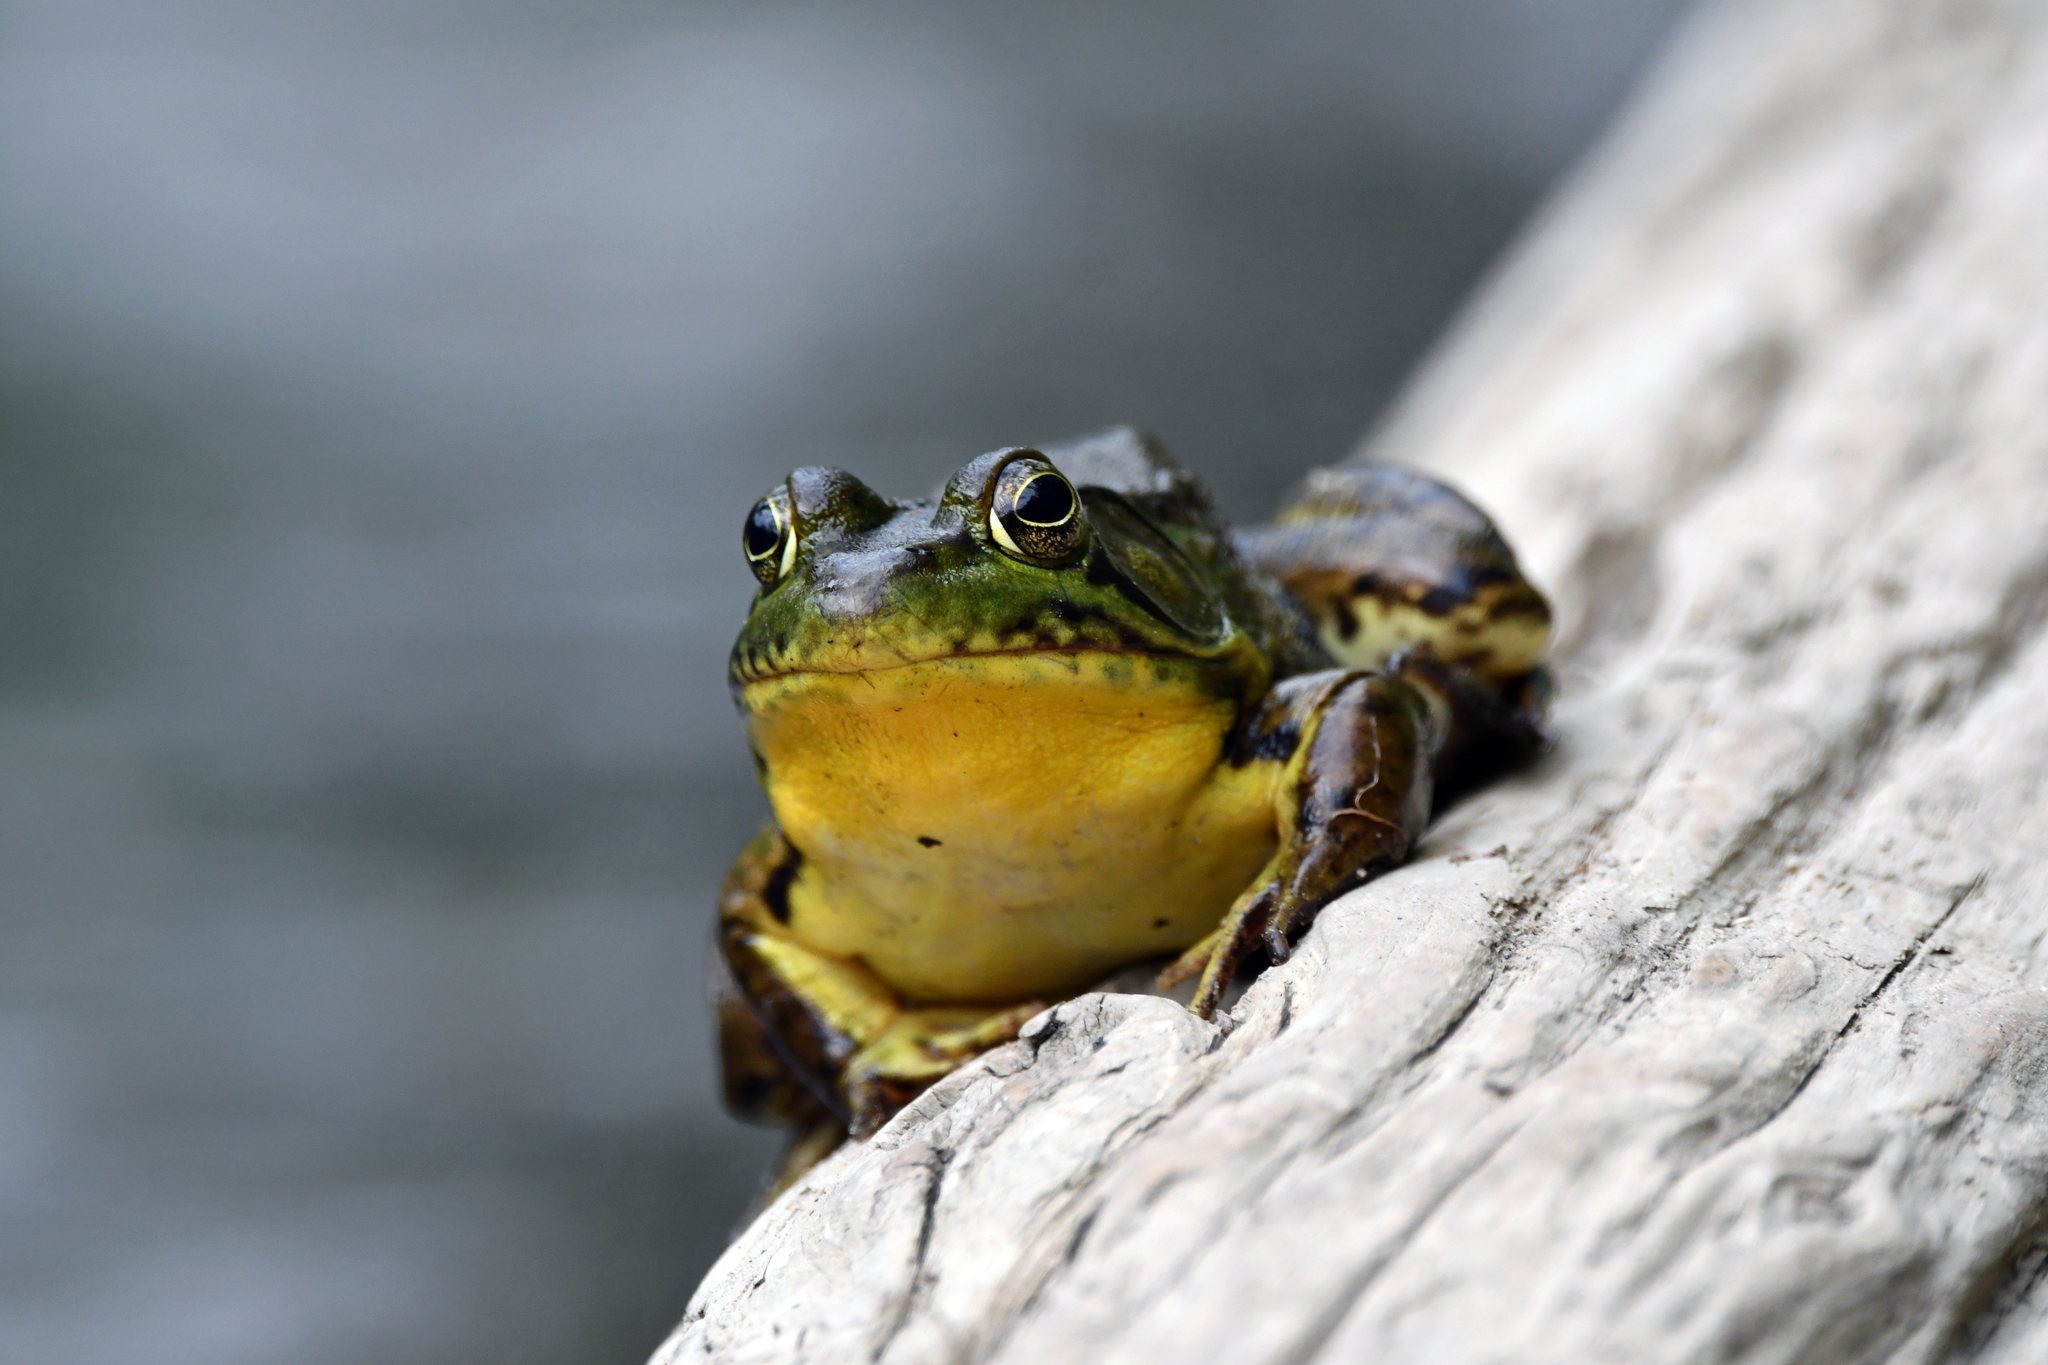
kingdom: Animalia
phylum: Chordata
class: Amphibia
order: Anura
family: Ranidae
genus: Lithobates
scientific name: Lithobates clamitans
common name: Green frog
